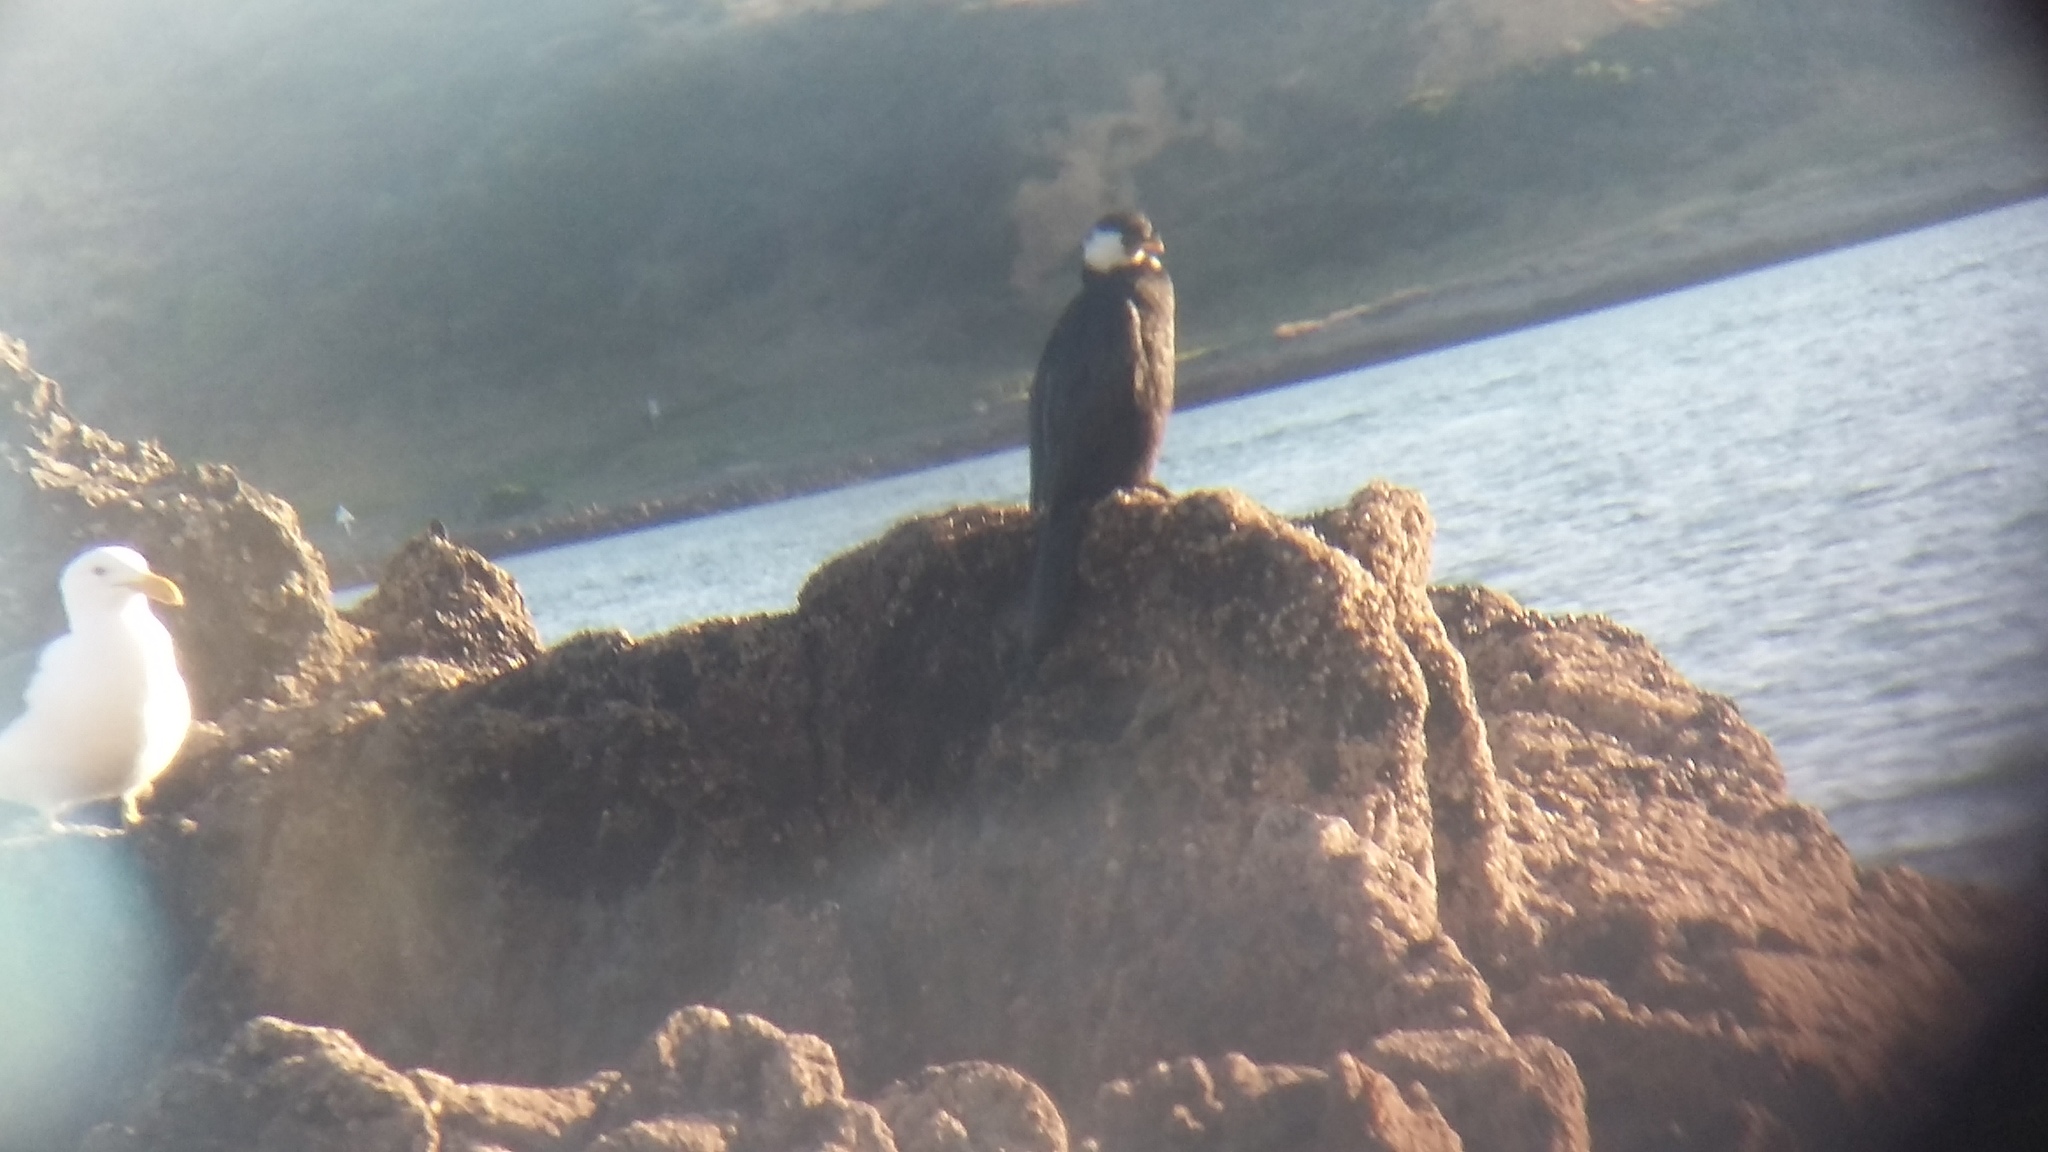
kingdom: Animalia
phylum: Chordata
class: Aves
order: Suliformes
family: Phalacrocoracidae
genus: Microcarbo
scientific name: Microcarbo melanoleucos
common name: Little pied cormorant
